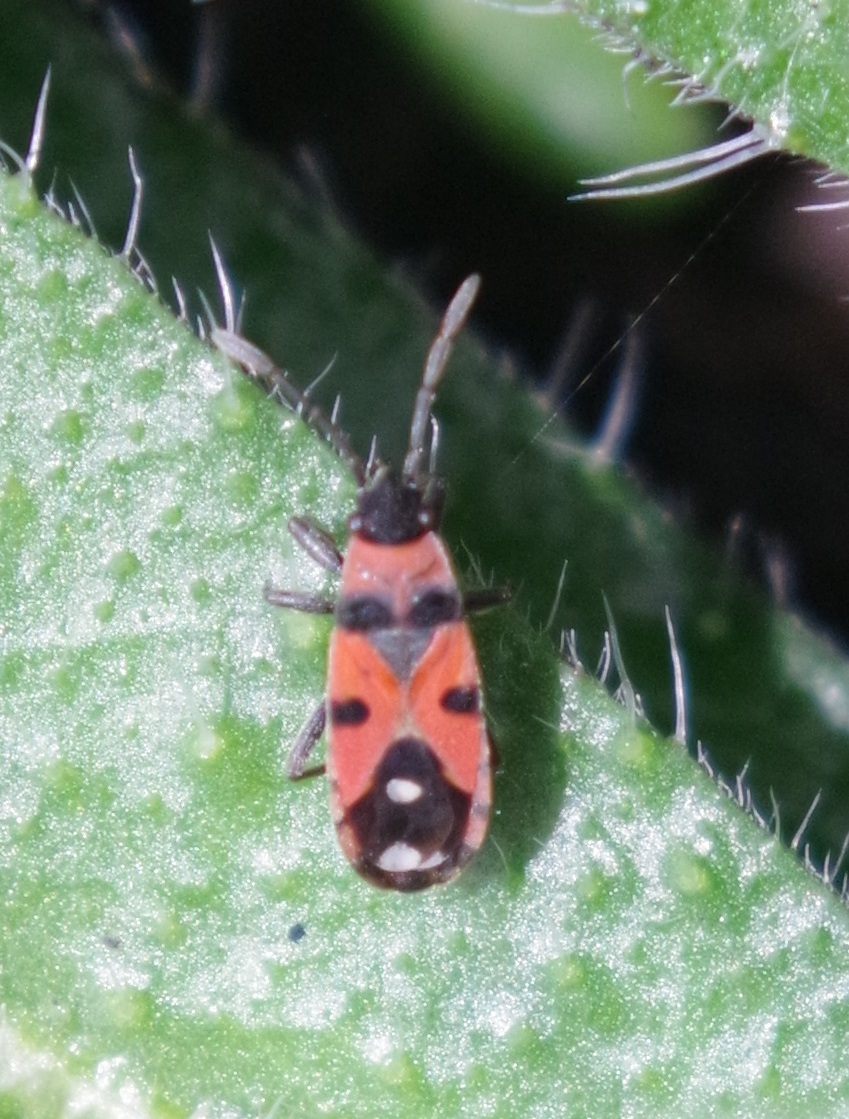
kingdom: Animalia
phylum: Arthropoda
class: Insecta
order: Hemiptera
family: Lygaeidae
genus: Horvathiolus
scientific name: Horvathiolus superbus
